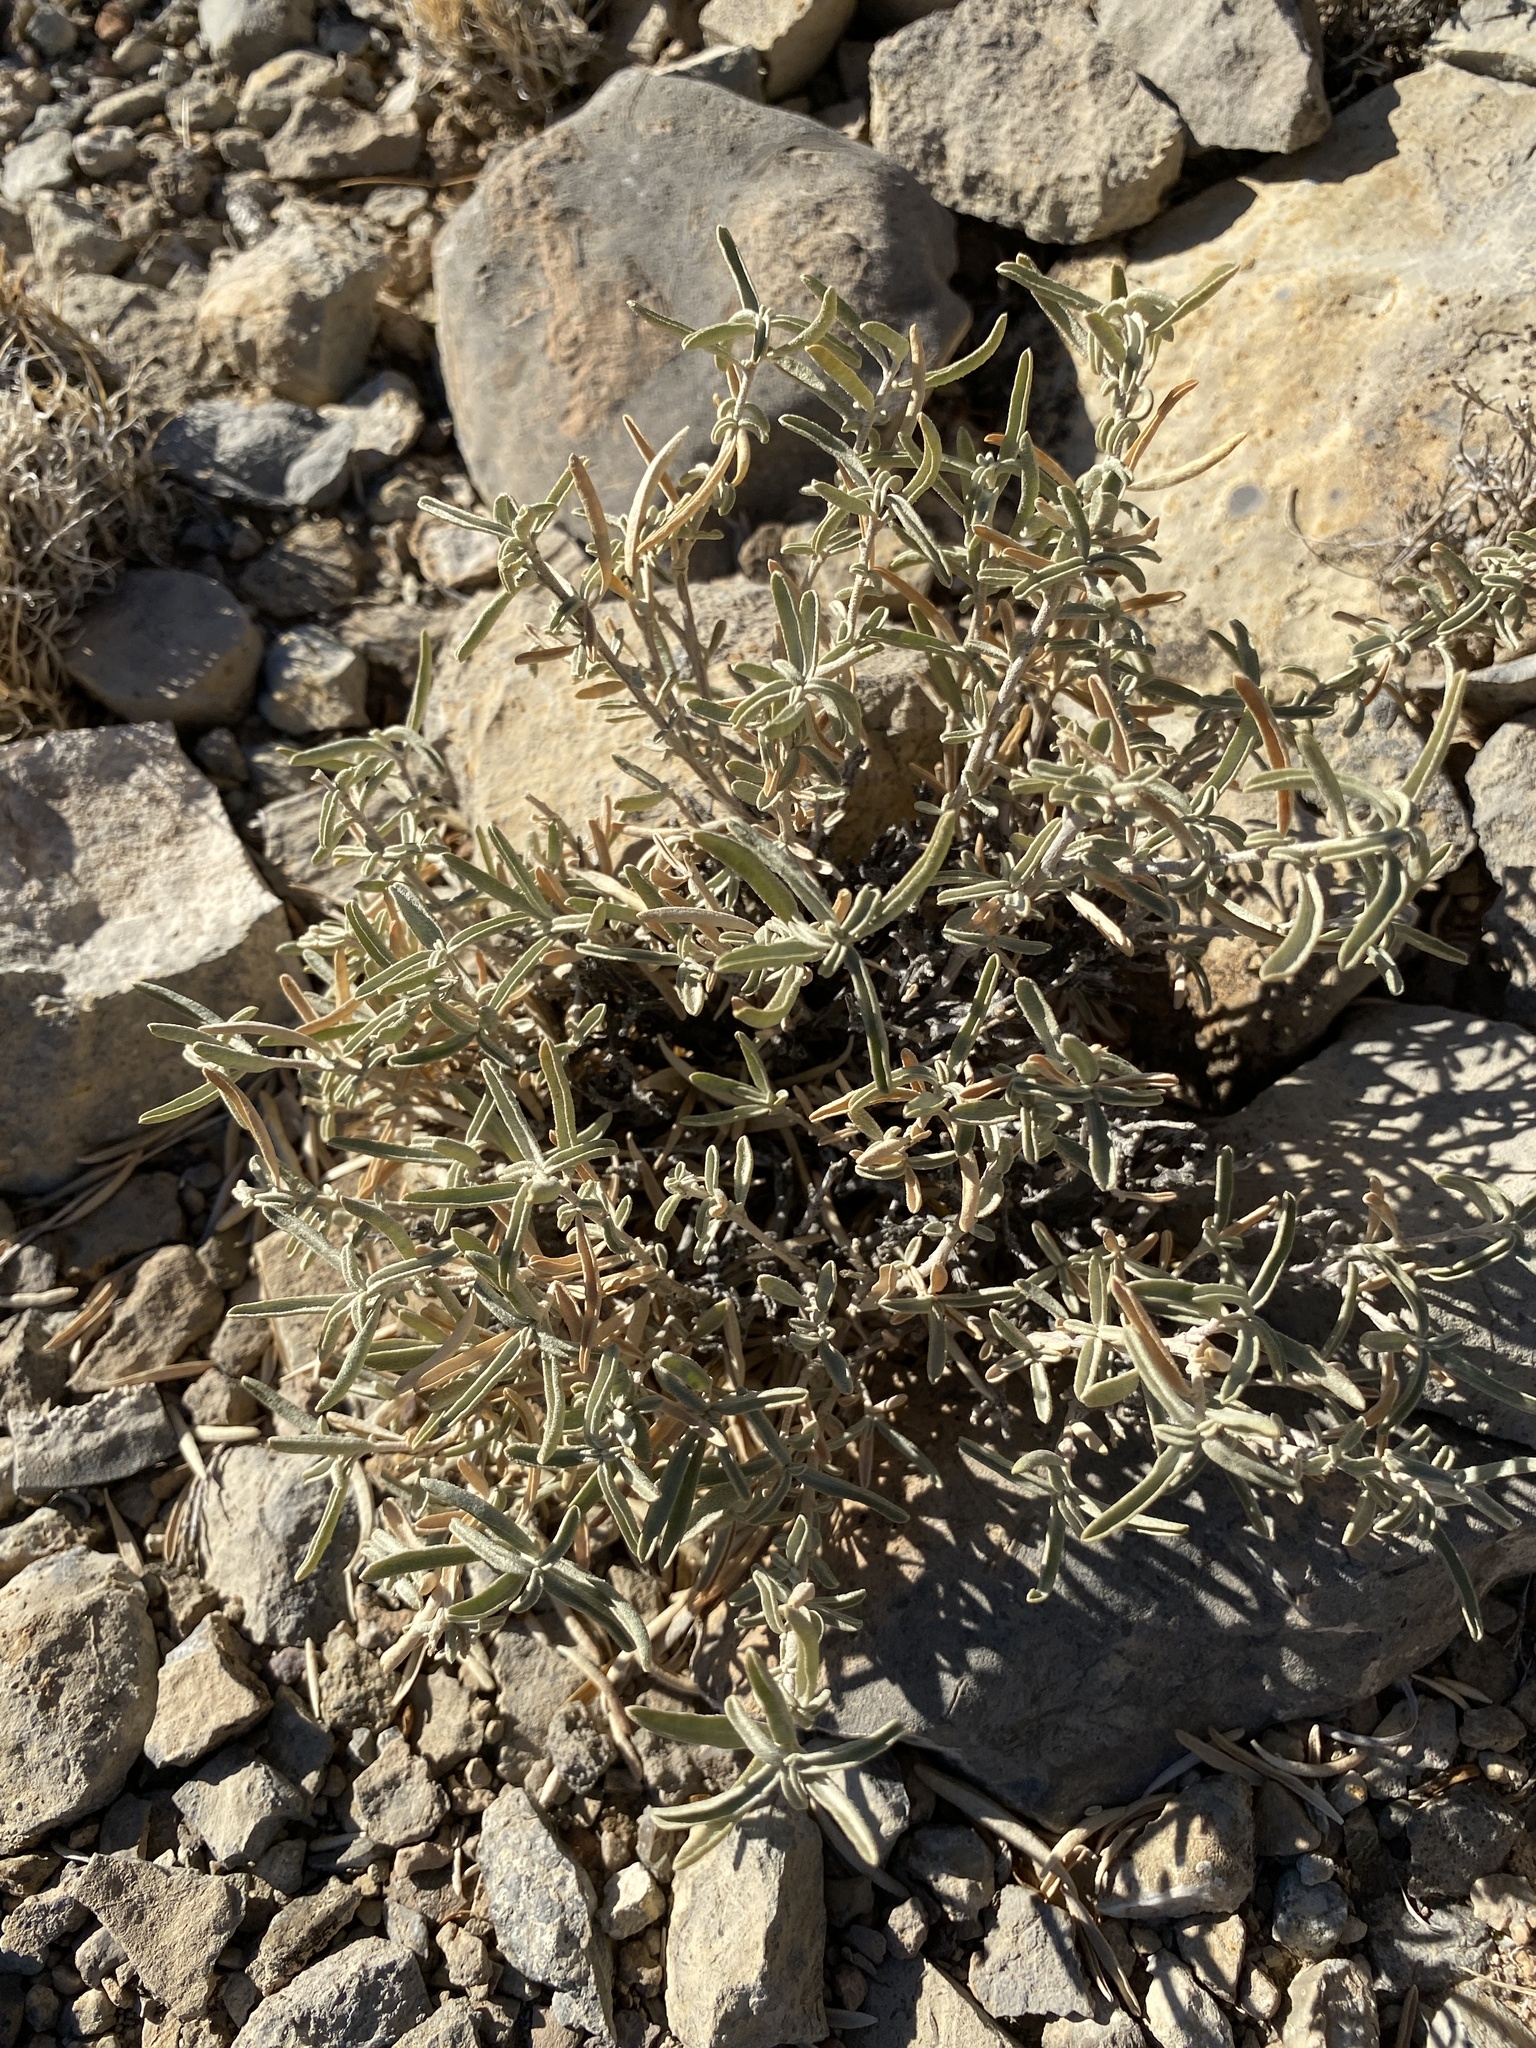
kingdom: Plantae
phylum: Tracheophyta
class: Magnoliopsida
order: Caryophyllales
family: Amaranthaceae
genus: Atriplex
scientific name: Atriplex canescens
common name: Four-wing saltbush
